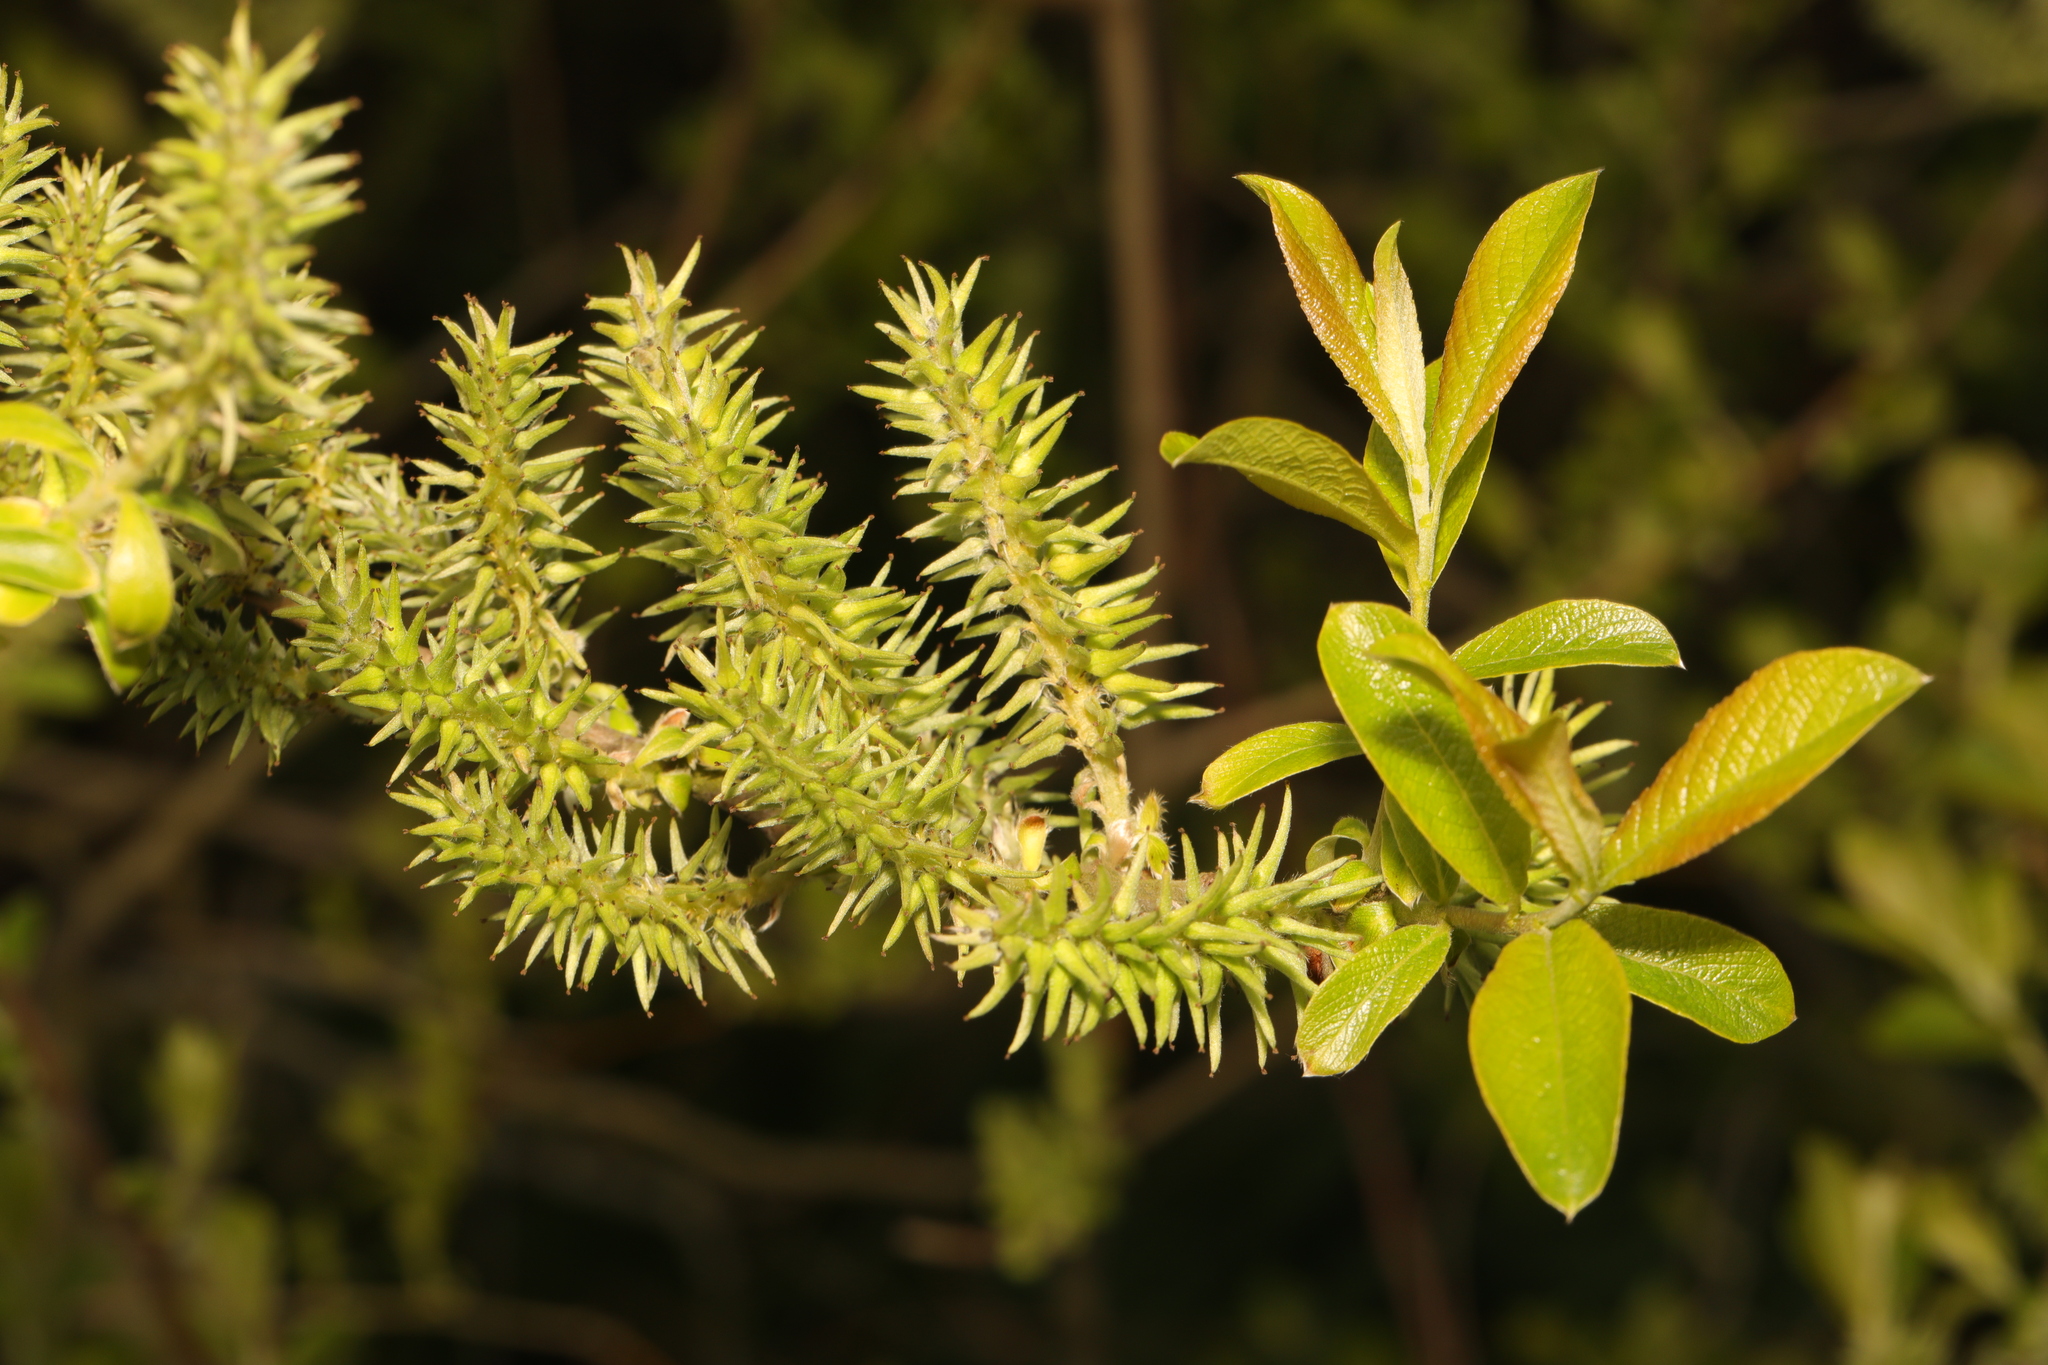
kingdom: Plantae
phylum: Tracheophyta
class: Magnoliopsida
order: Malpighiales
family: Salicaceae
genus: Salix
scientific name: Salix cinerea
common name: Common sallow
